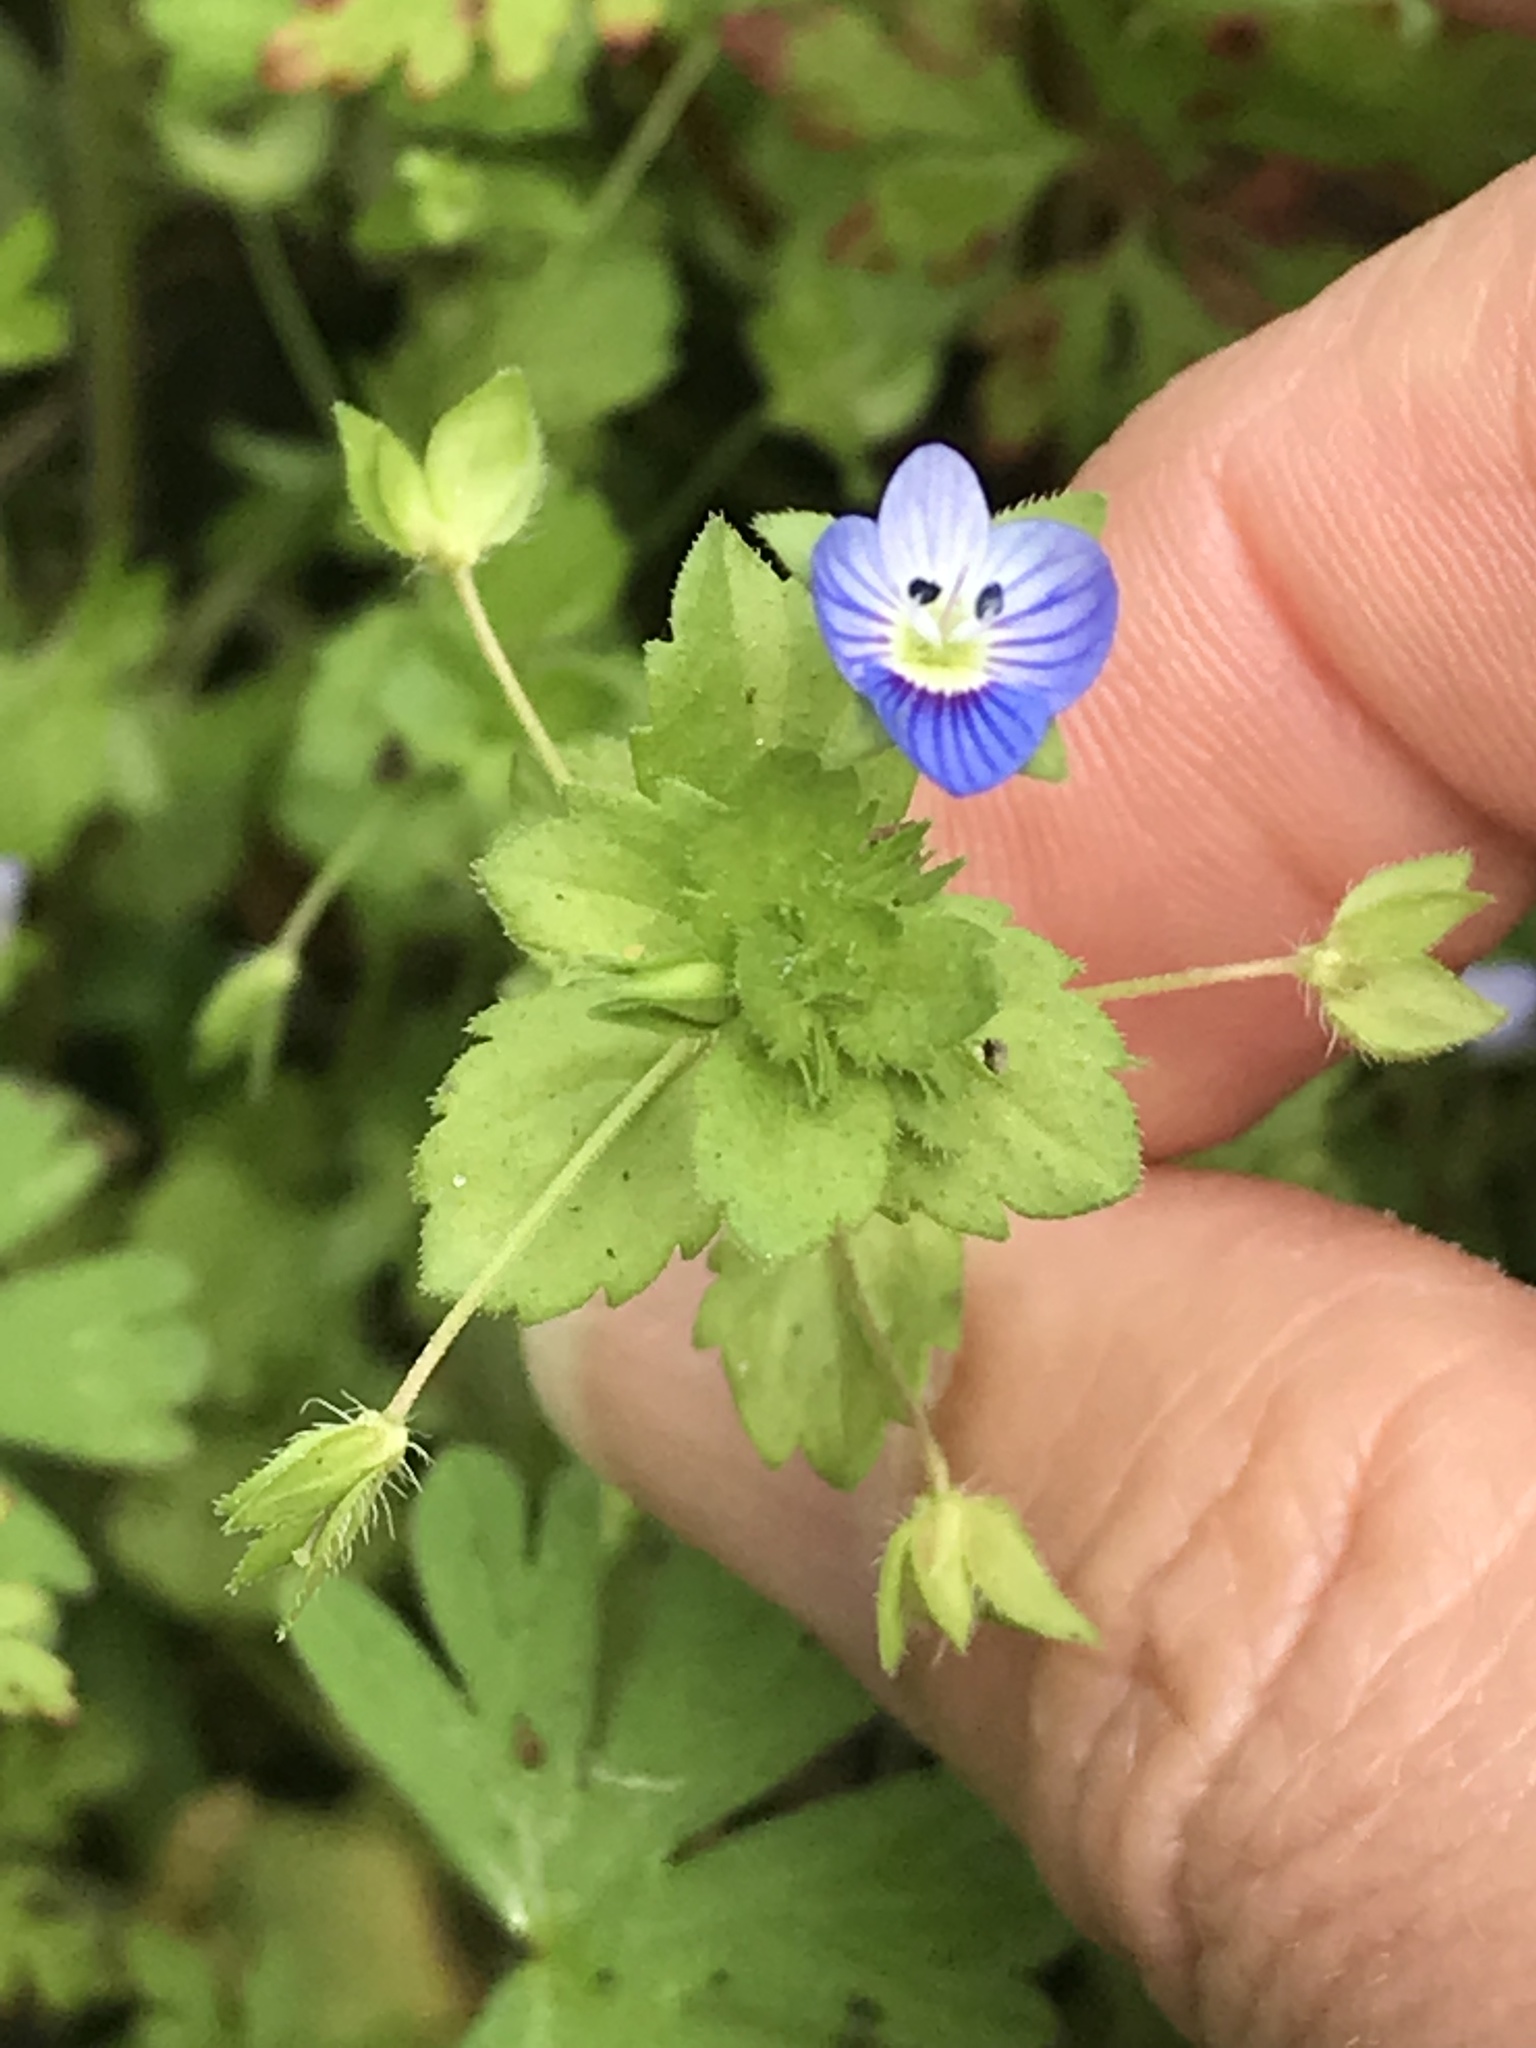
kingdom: Plantae
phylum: Tracheophyta
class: Magnoliopsida
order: Lamiales
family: Plantaginaceae
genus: Veronica
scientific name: Veronica persica
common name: Common field-speedwell
